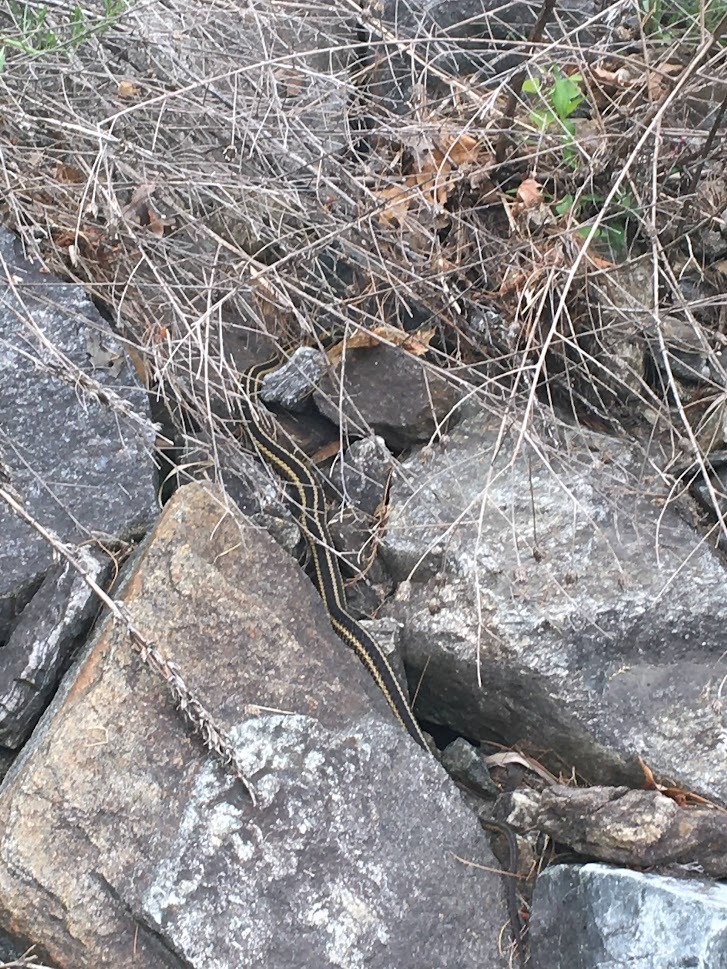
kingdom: Animalia
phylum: Chordata
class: Squamata
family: Colubridae
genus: Thamnophis
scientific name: Thamnophis sirtalis
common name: Common garter snake
